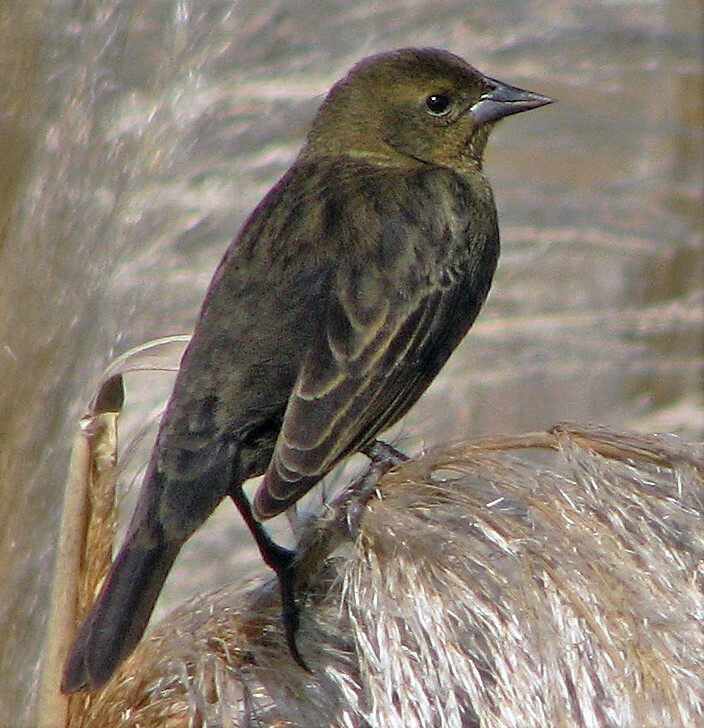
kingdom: Animalia
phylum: Chordata
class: Aves
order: Passeriformes
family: Icteridae
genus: Chrysomus
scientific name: Chrysomus ruficapillus
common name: Chestnut-capped blackbird
